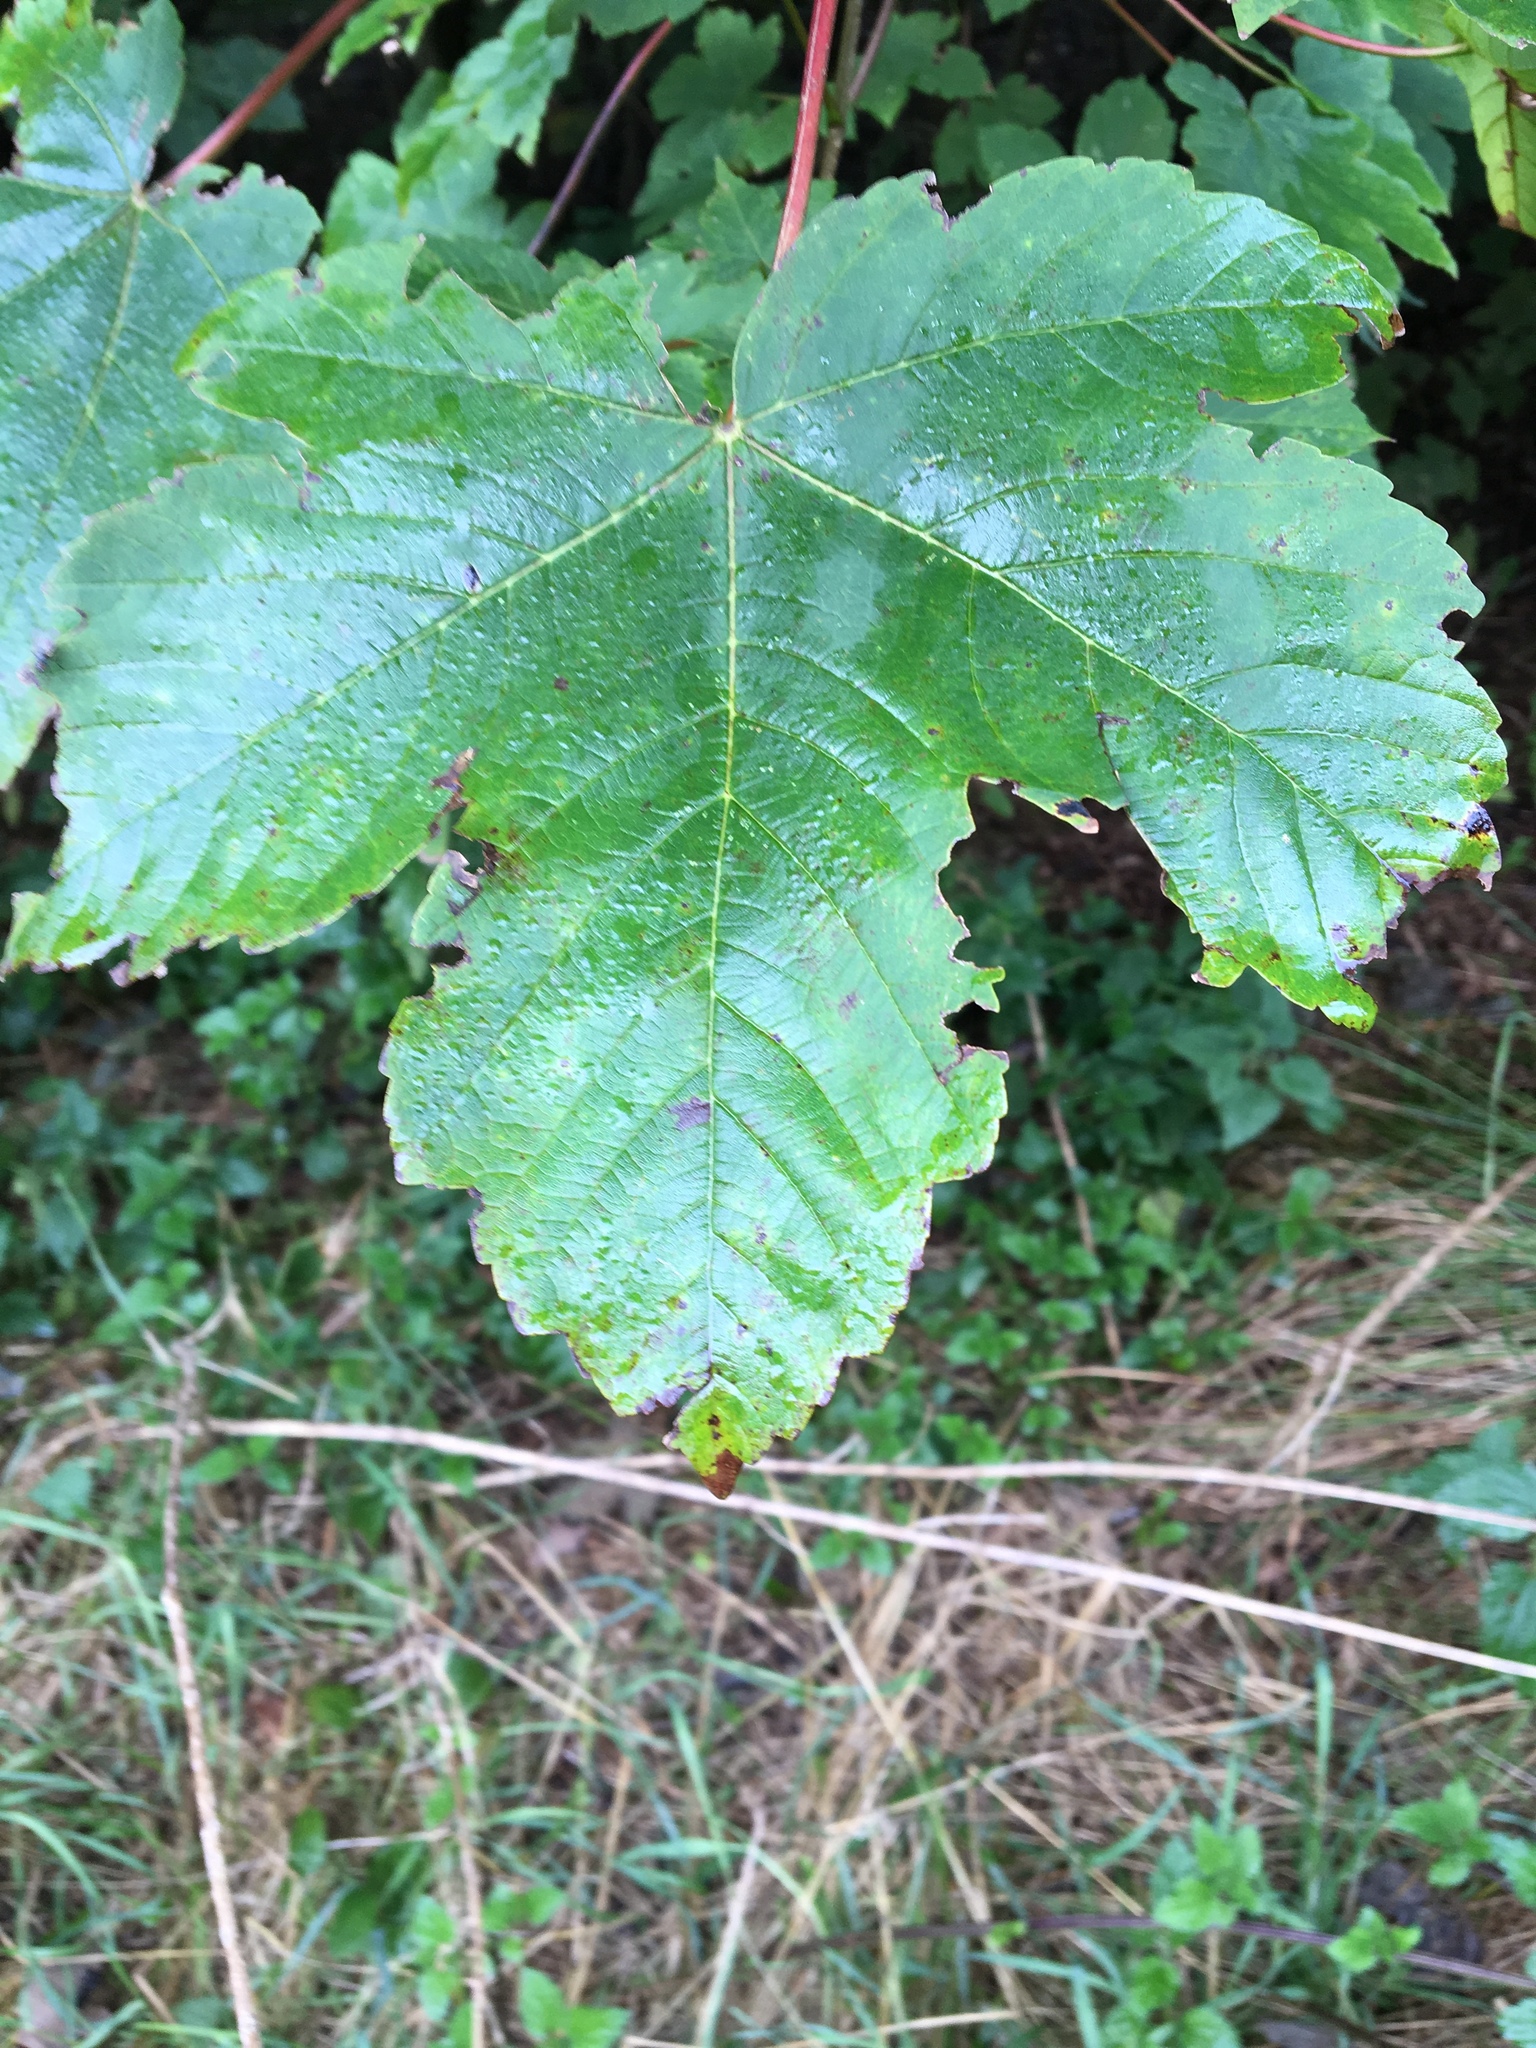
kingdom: Plantae
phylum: Tracheophyta
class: Magnoliopsida
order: Sapindales
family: Sapindaceae
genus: Acer
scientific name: Acer pseudoplatanus
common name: Sycamore
